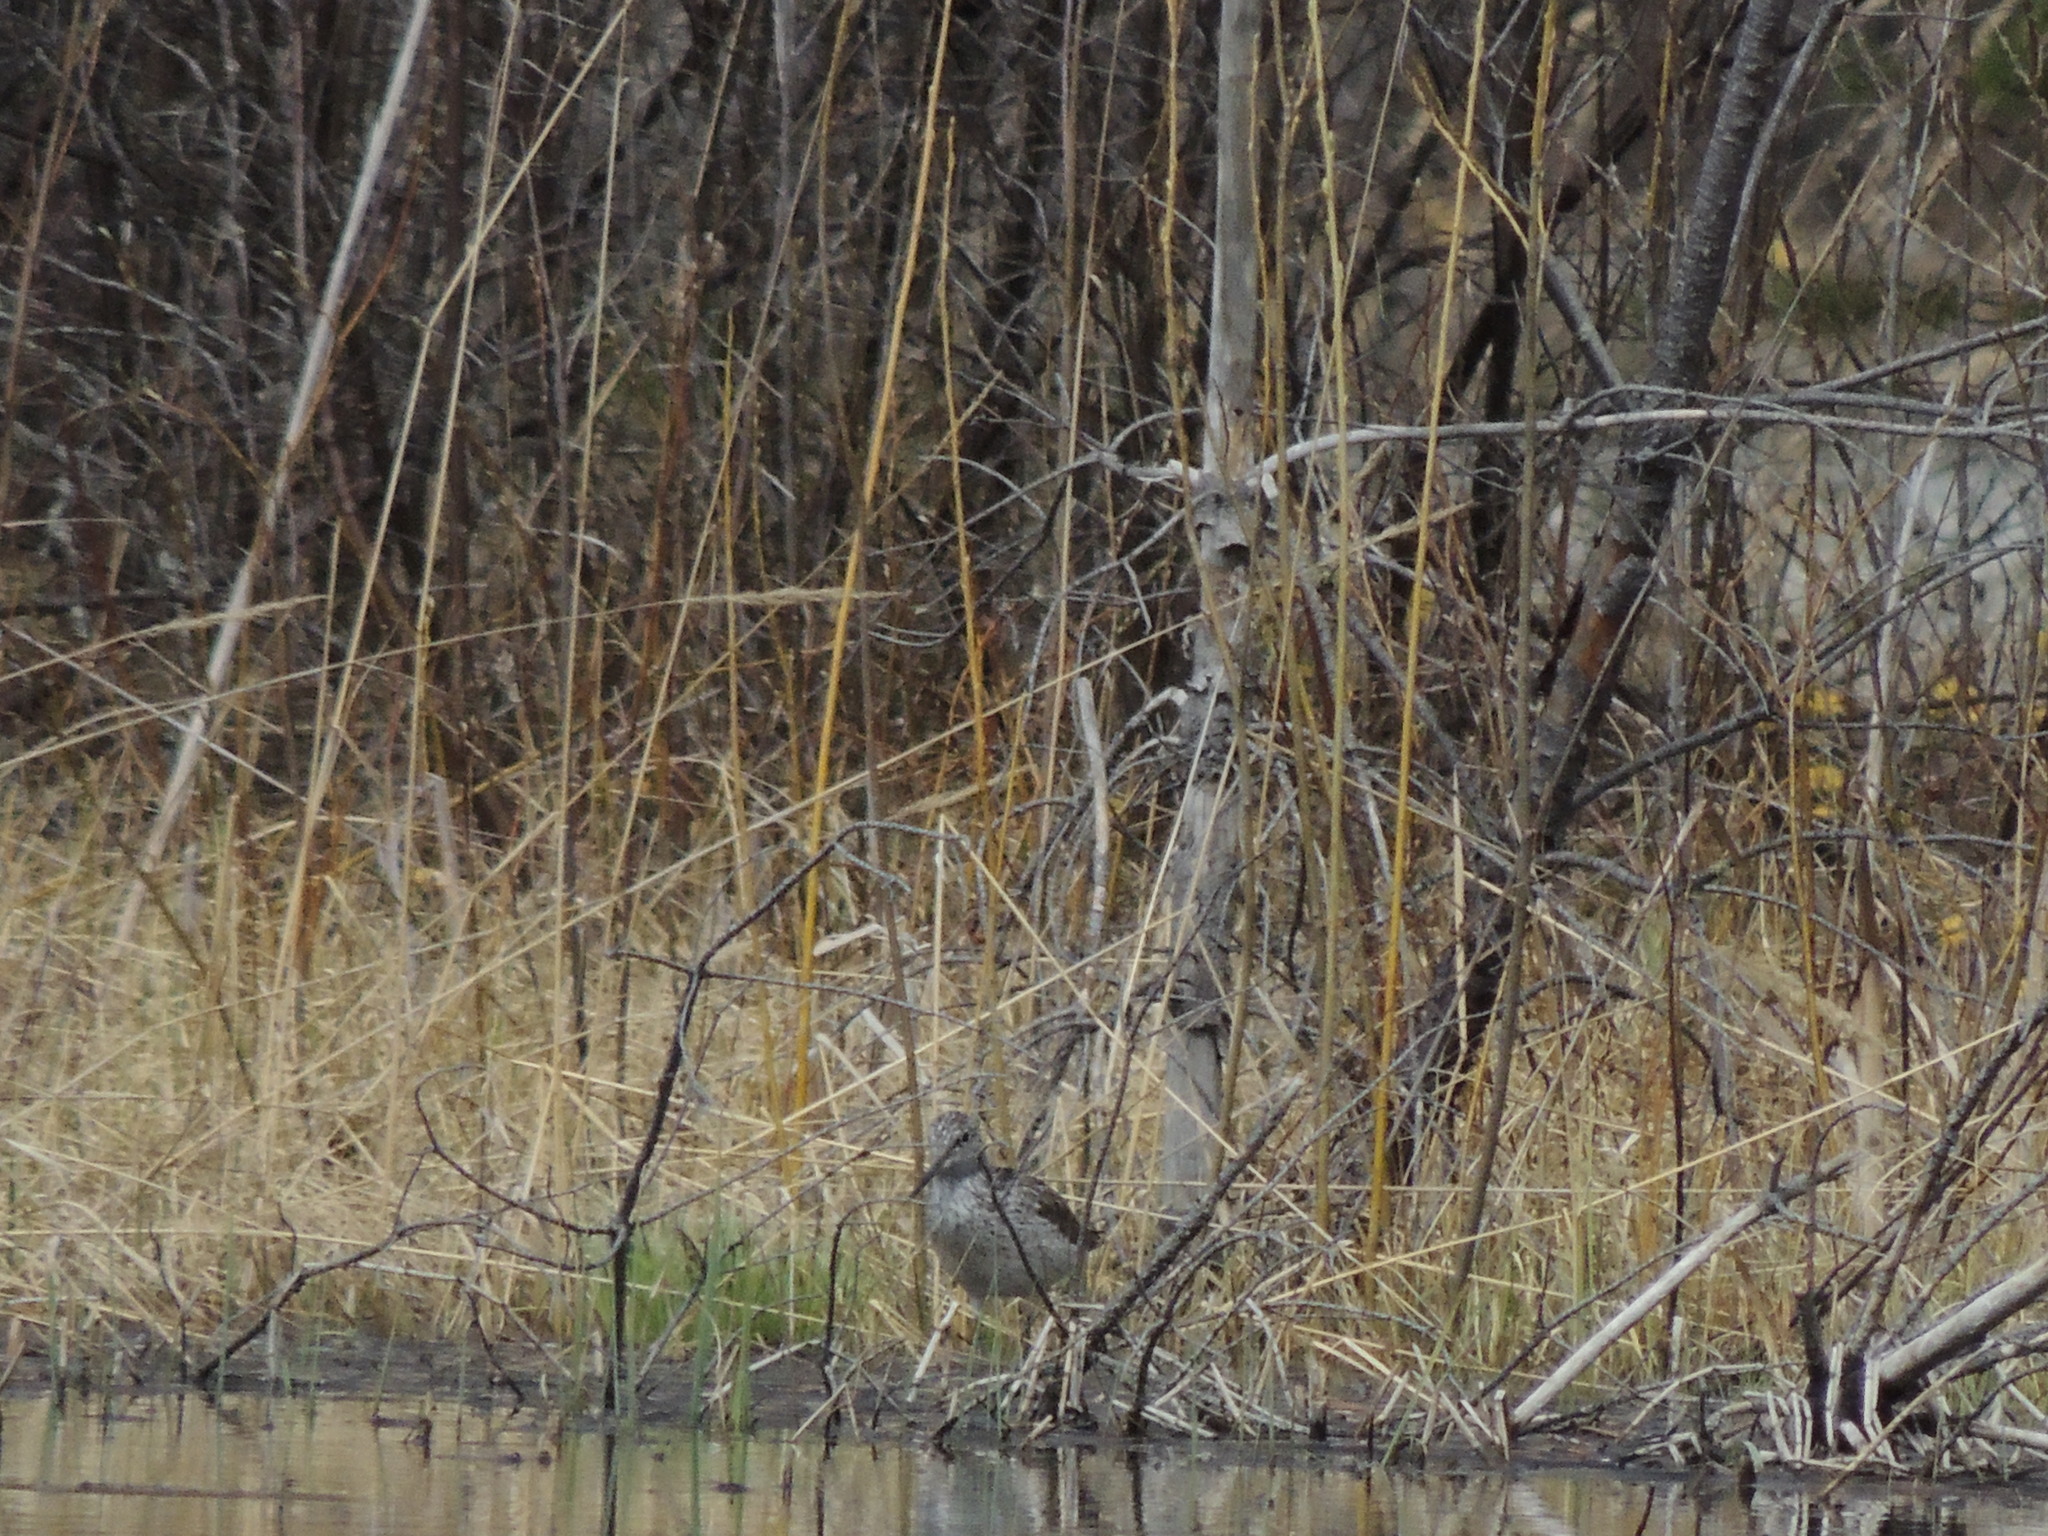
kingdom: Animalia
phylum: Chordata
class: Aves
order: Charadriiformes
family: Scolopacidae
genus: Tringa
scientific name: Tringa nebularia
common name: Common greenshank
